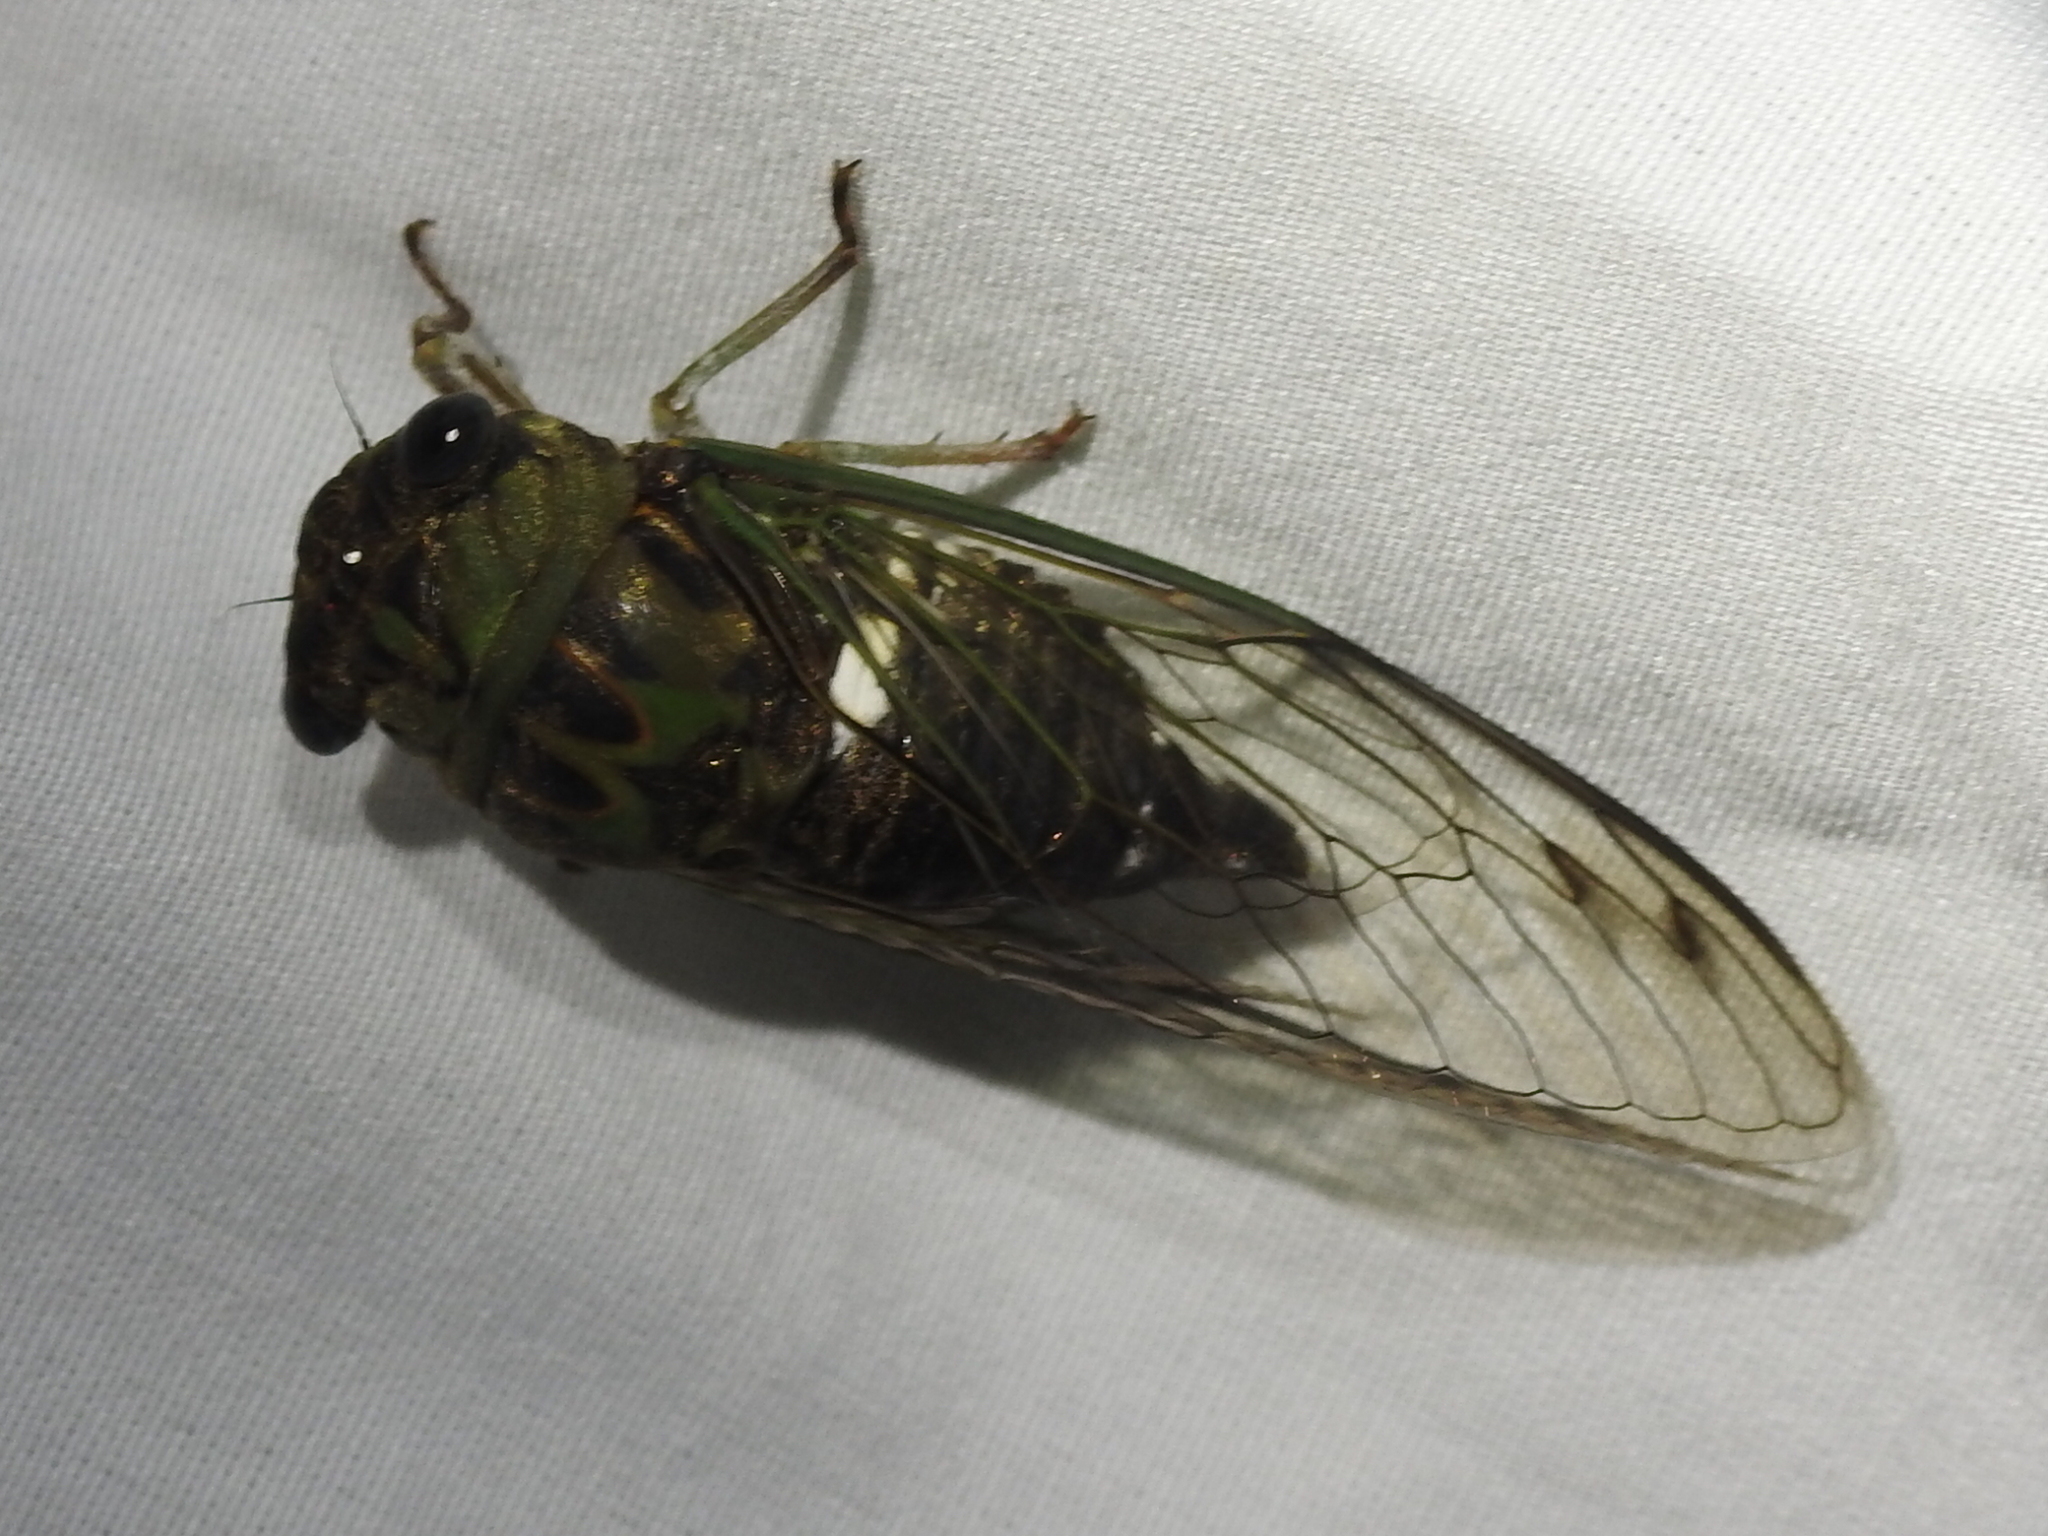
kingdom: Animalia
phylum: Arthropoda
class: Insecta
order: Hemiptera
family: Cicadidae
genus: Neotibicen
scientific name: Neotibicen pruinosus
